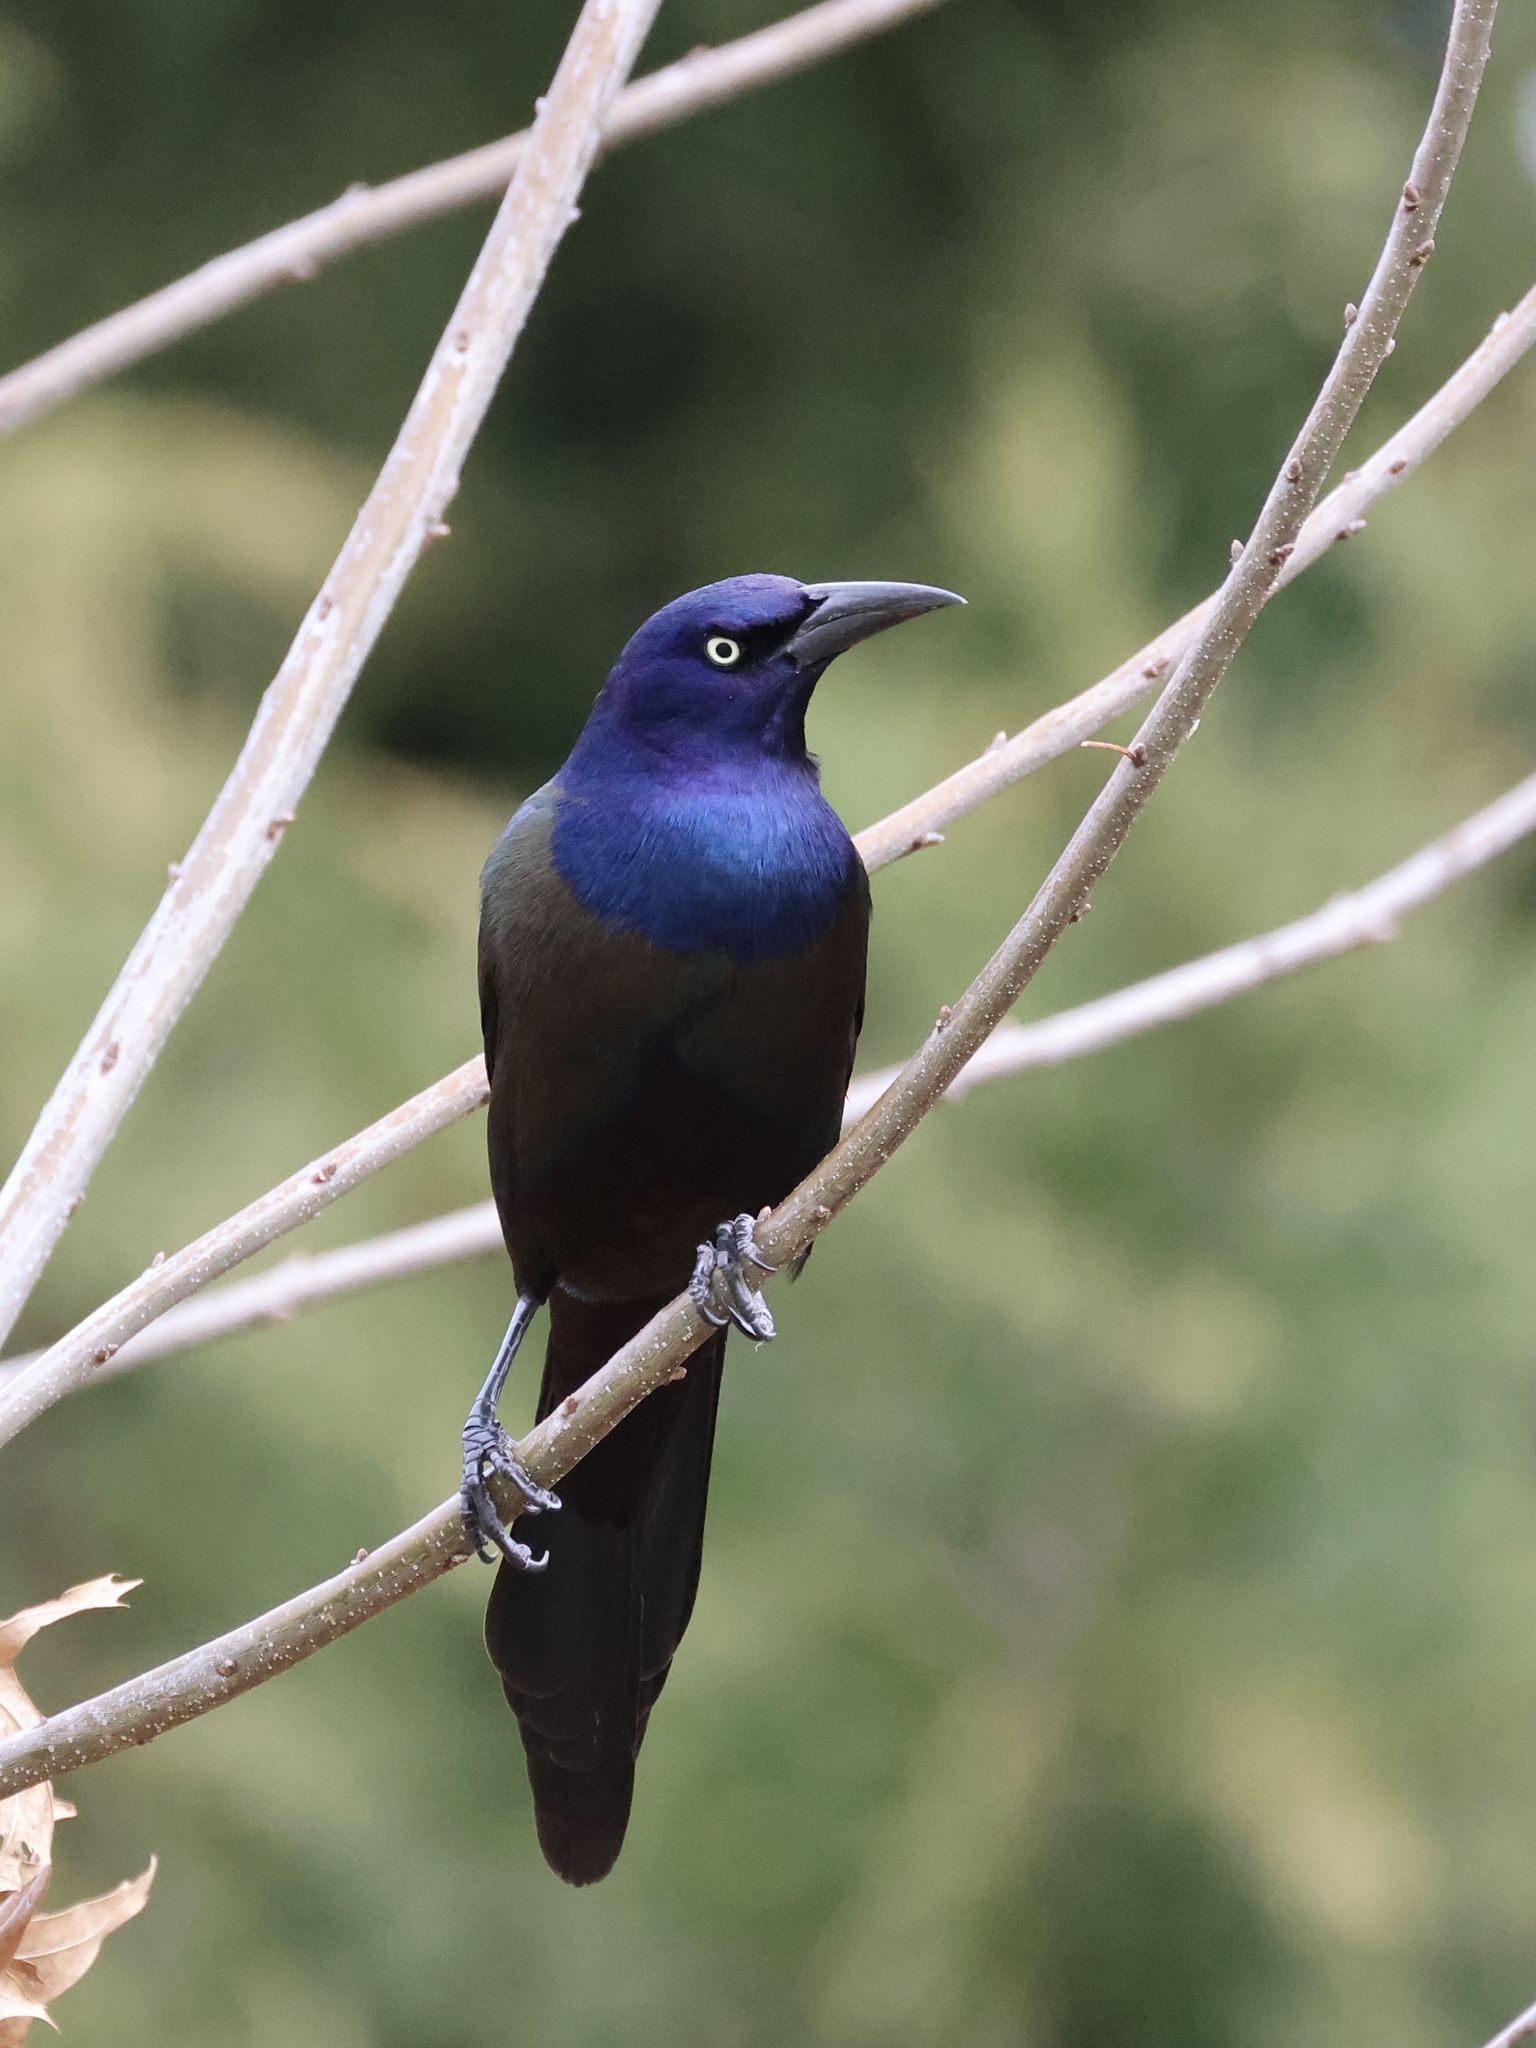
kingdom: Animalia
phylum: Chordata
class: Aves
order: Passeriformes
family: Icteridae
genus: Quiscalus
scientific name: Quiscalus quiscula
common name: Common grackle
